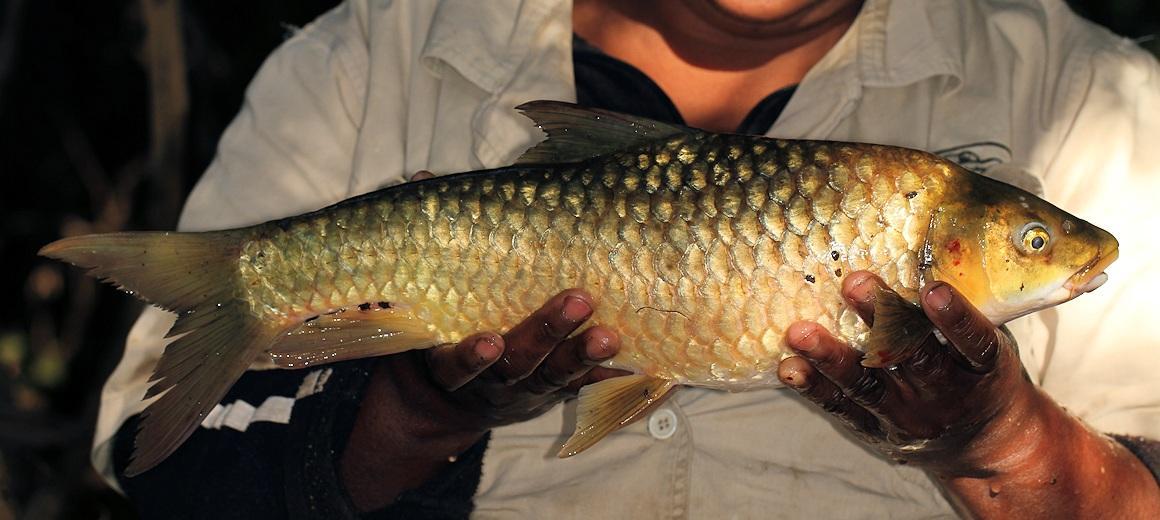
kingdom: Animalia
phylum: Chordata
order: Cypriniformes
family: Cyprinidae
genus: Labeobarbus
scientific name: Labeobarbus marequensis
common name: Largescale yellowfish
